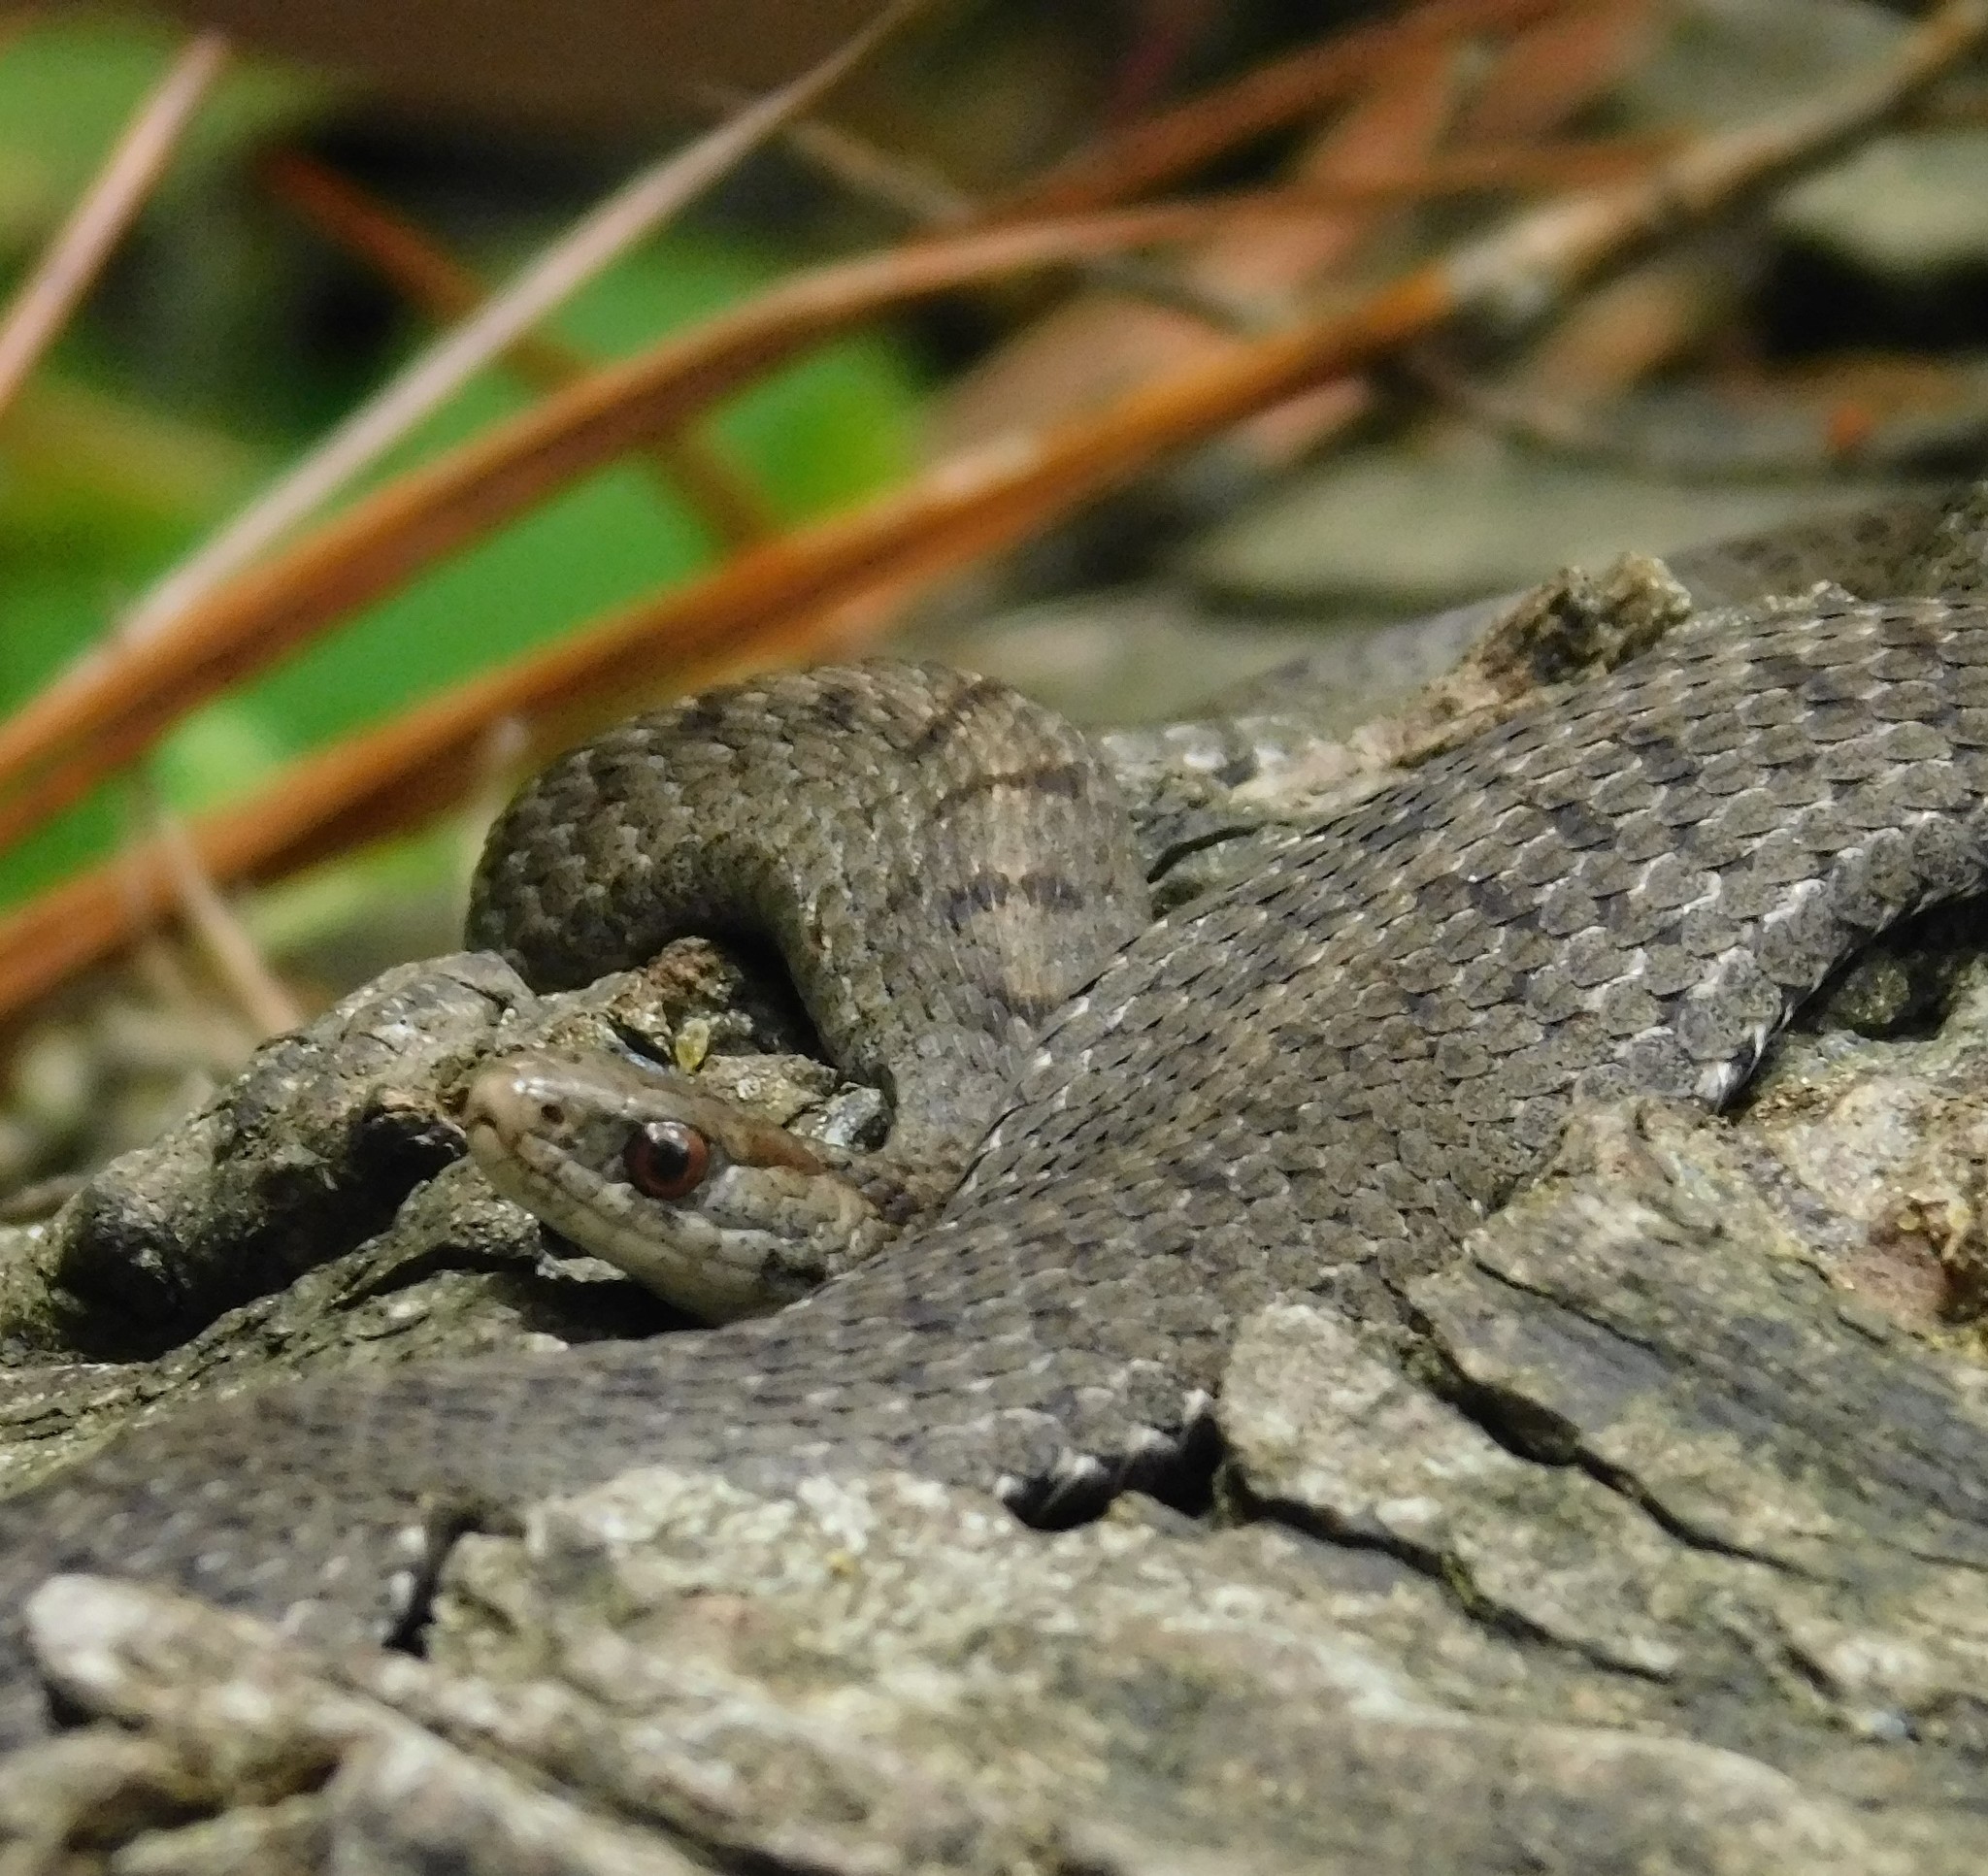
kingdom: Animalia
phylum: Chordata
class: Squamata
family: Colubridae
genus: Storeria
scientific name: Storeria storerioides
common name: Mexican brown snake
